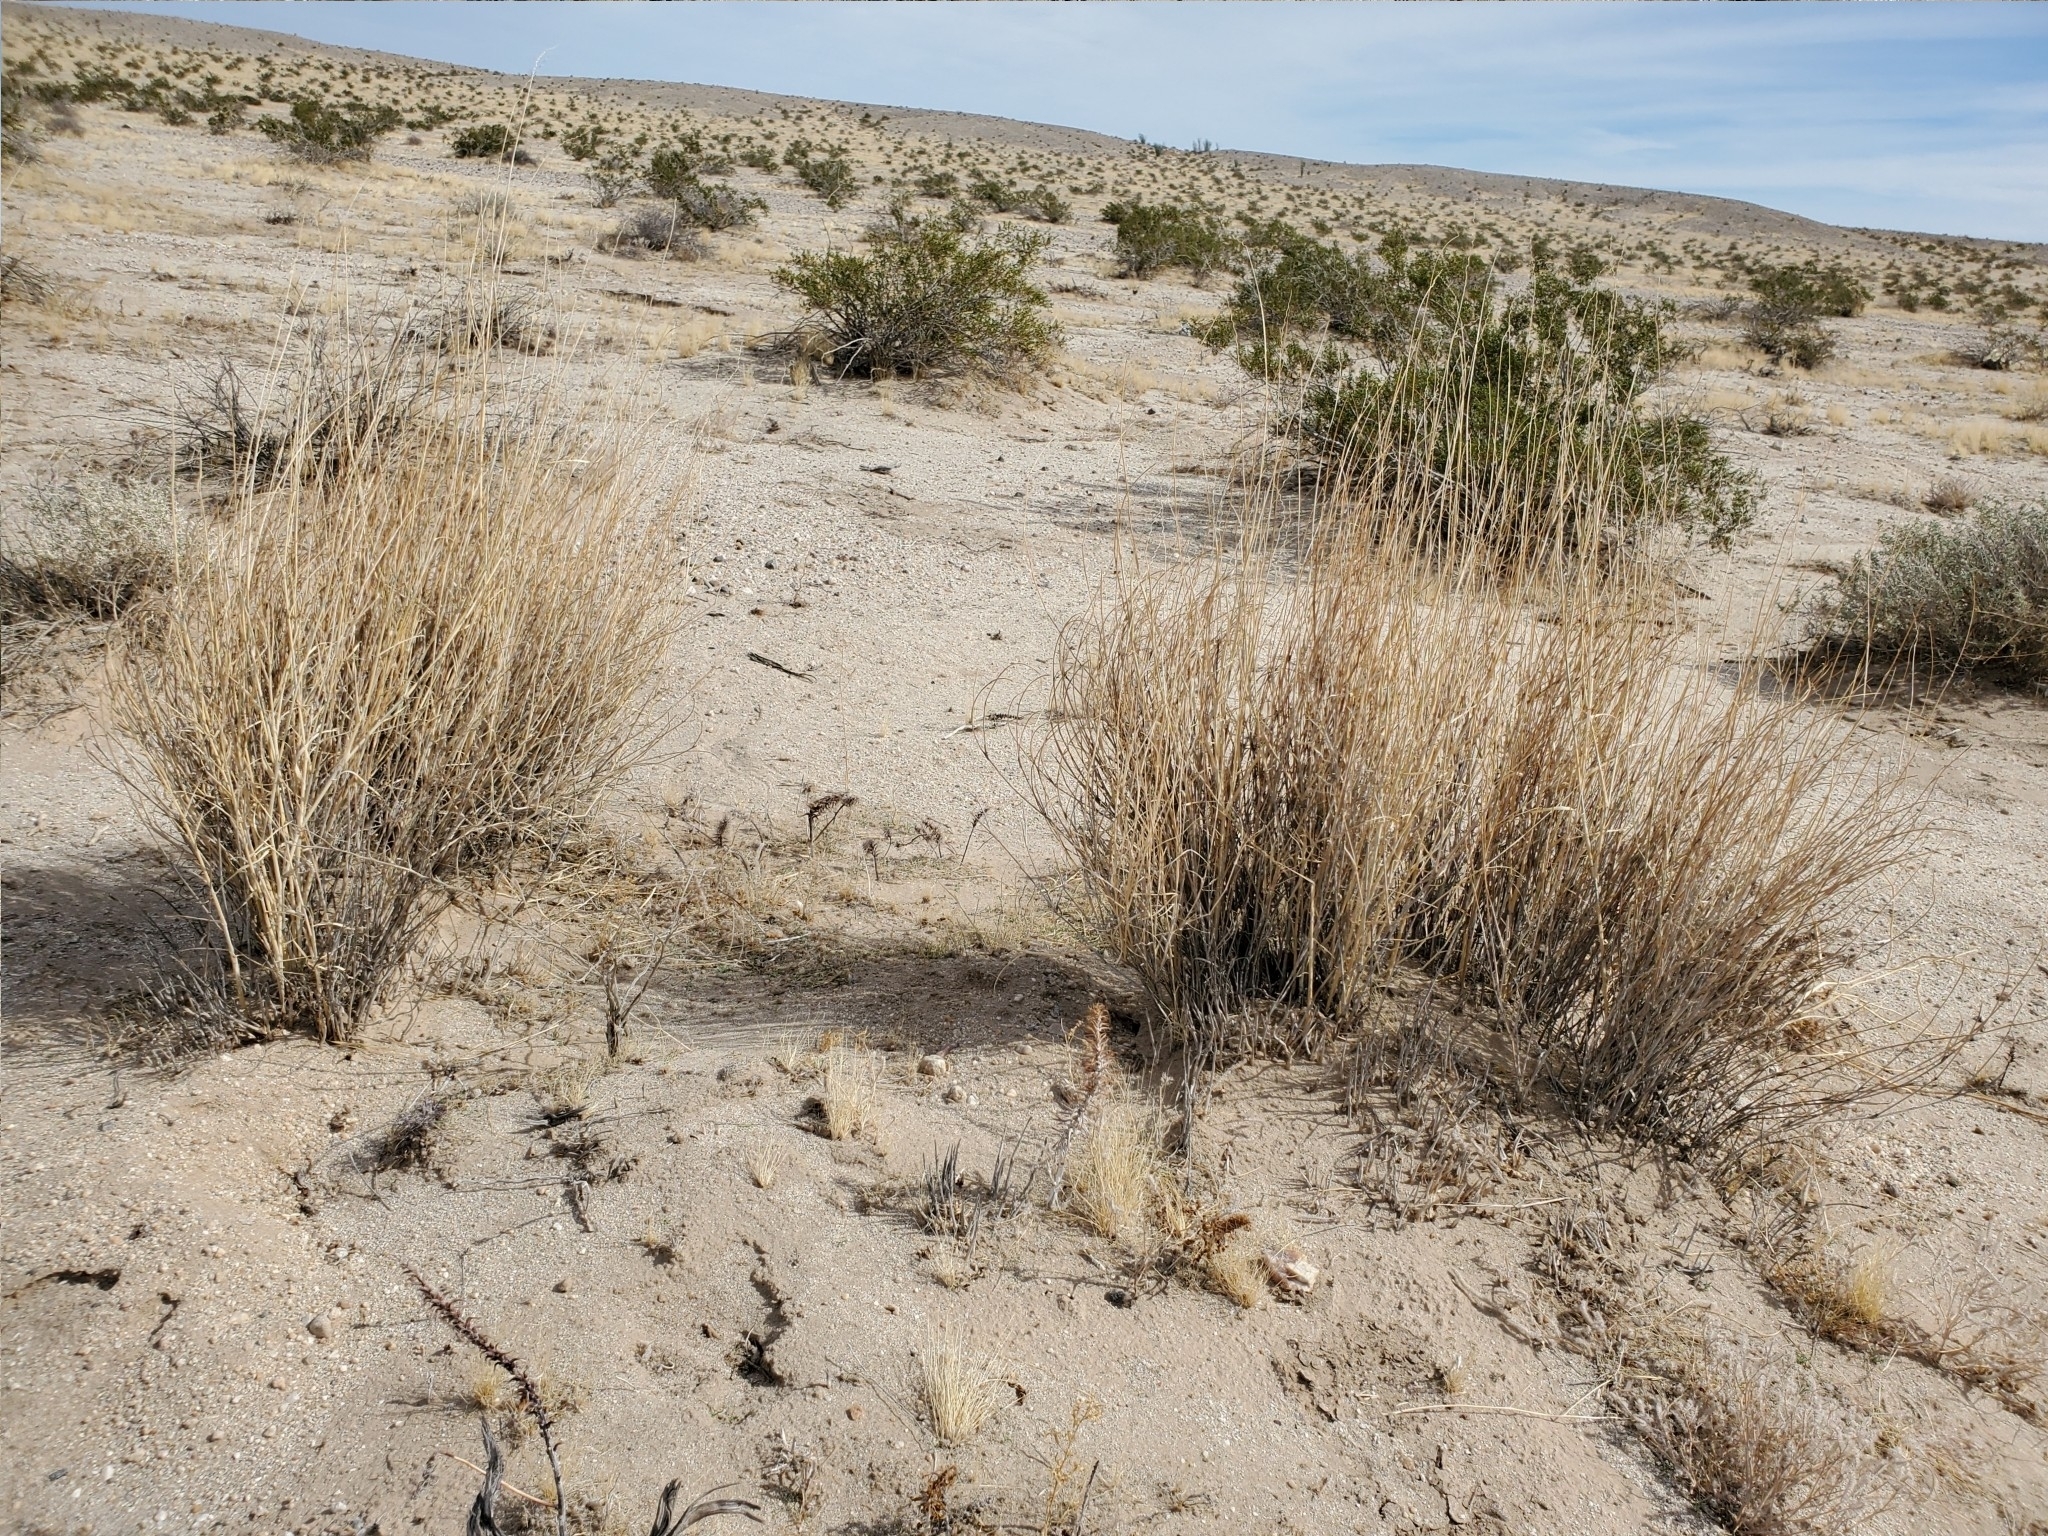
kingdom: Plantae
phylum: Tracheophyta
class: Liliopsida
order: Poales
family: Poaceae
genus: Hilaria
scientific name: Hilaria rigida
